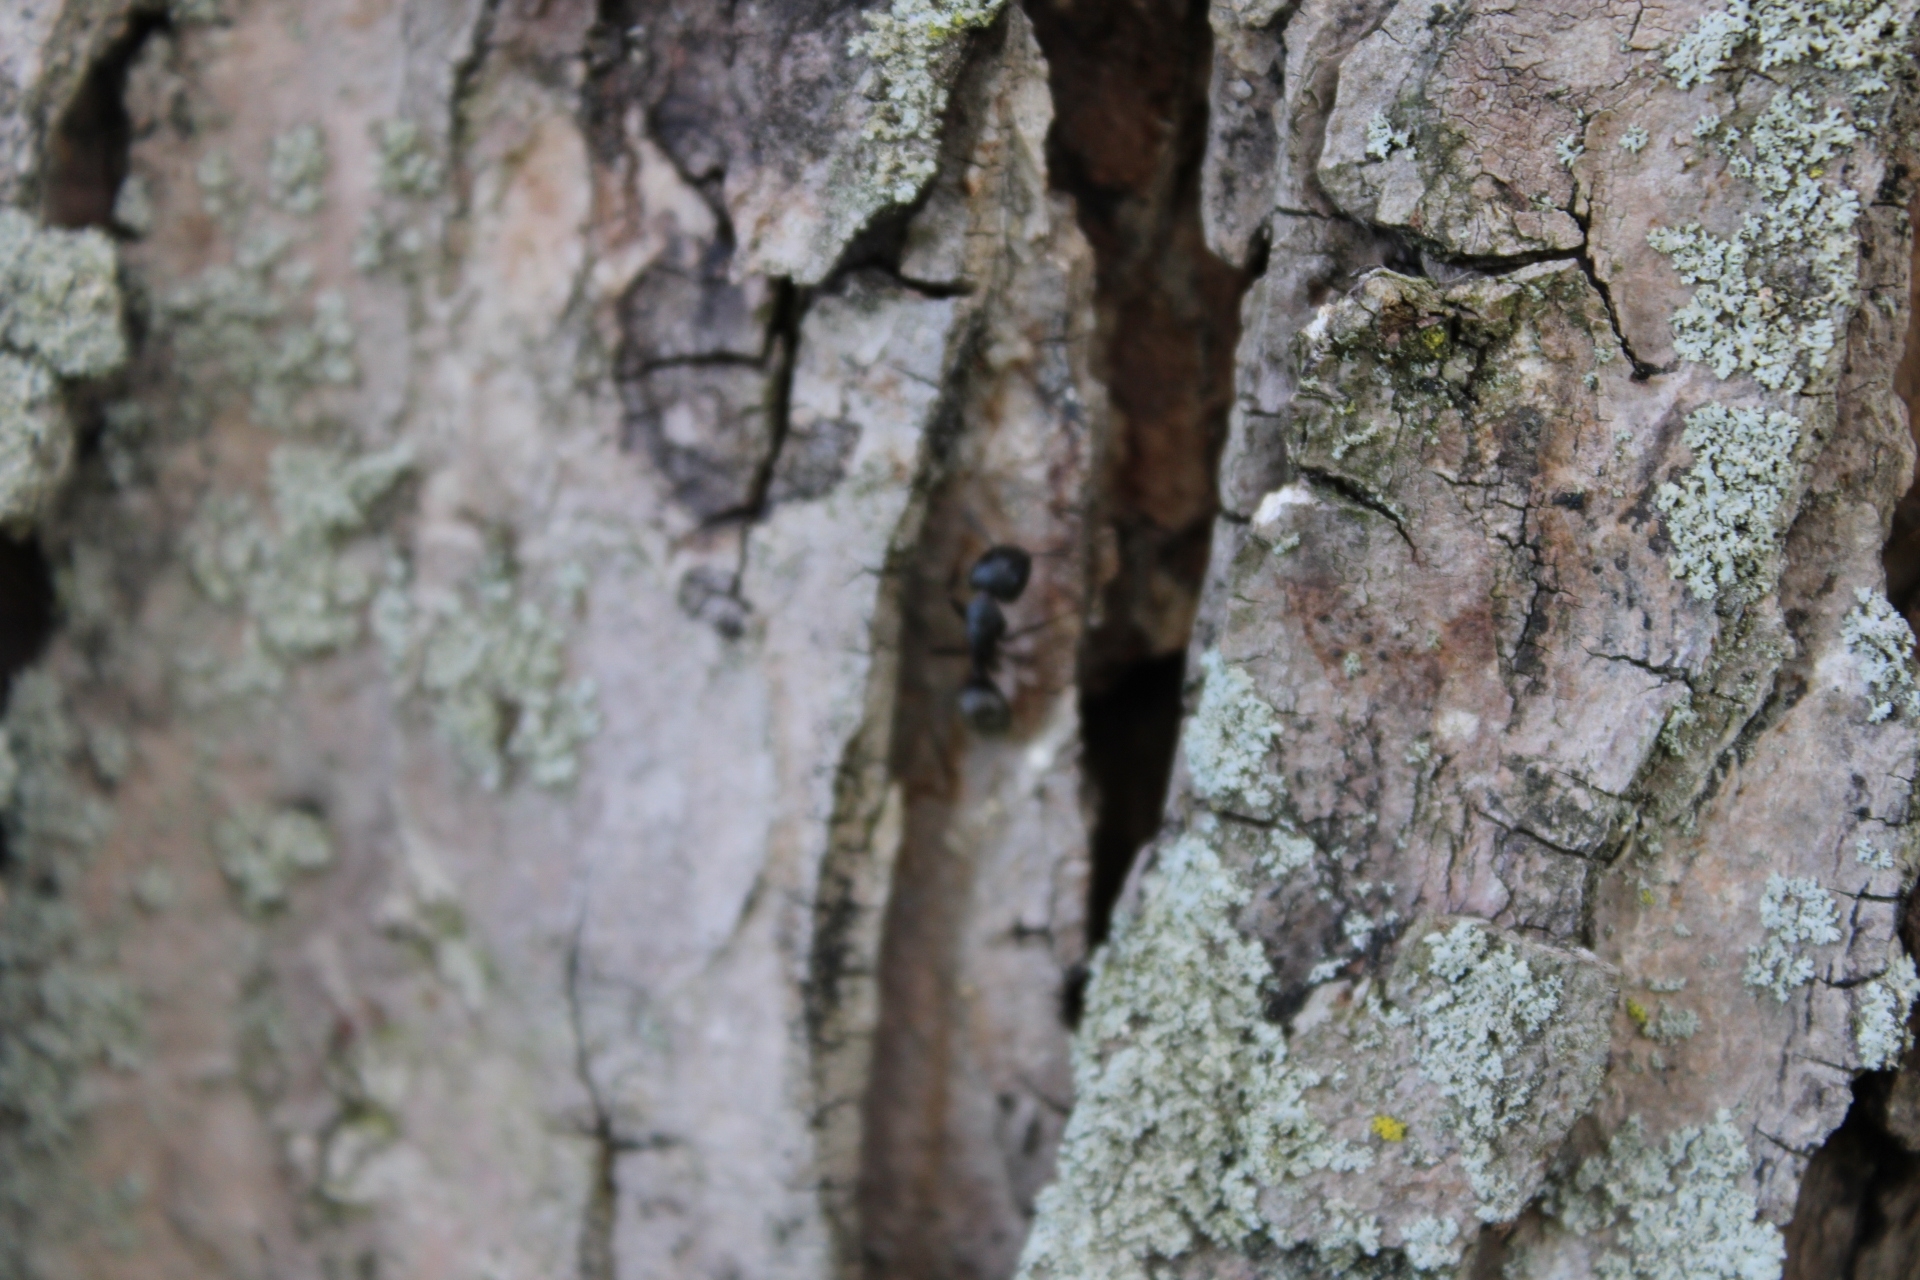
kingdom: Animalia
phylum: Arthropoda
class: Insecta
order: Hymenoptera
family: Formicidae
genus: Camponotus
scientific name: Camponotus pennsylvanicus
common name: Black carpenter ant
